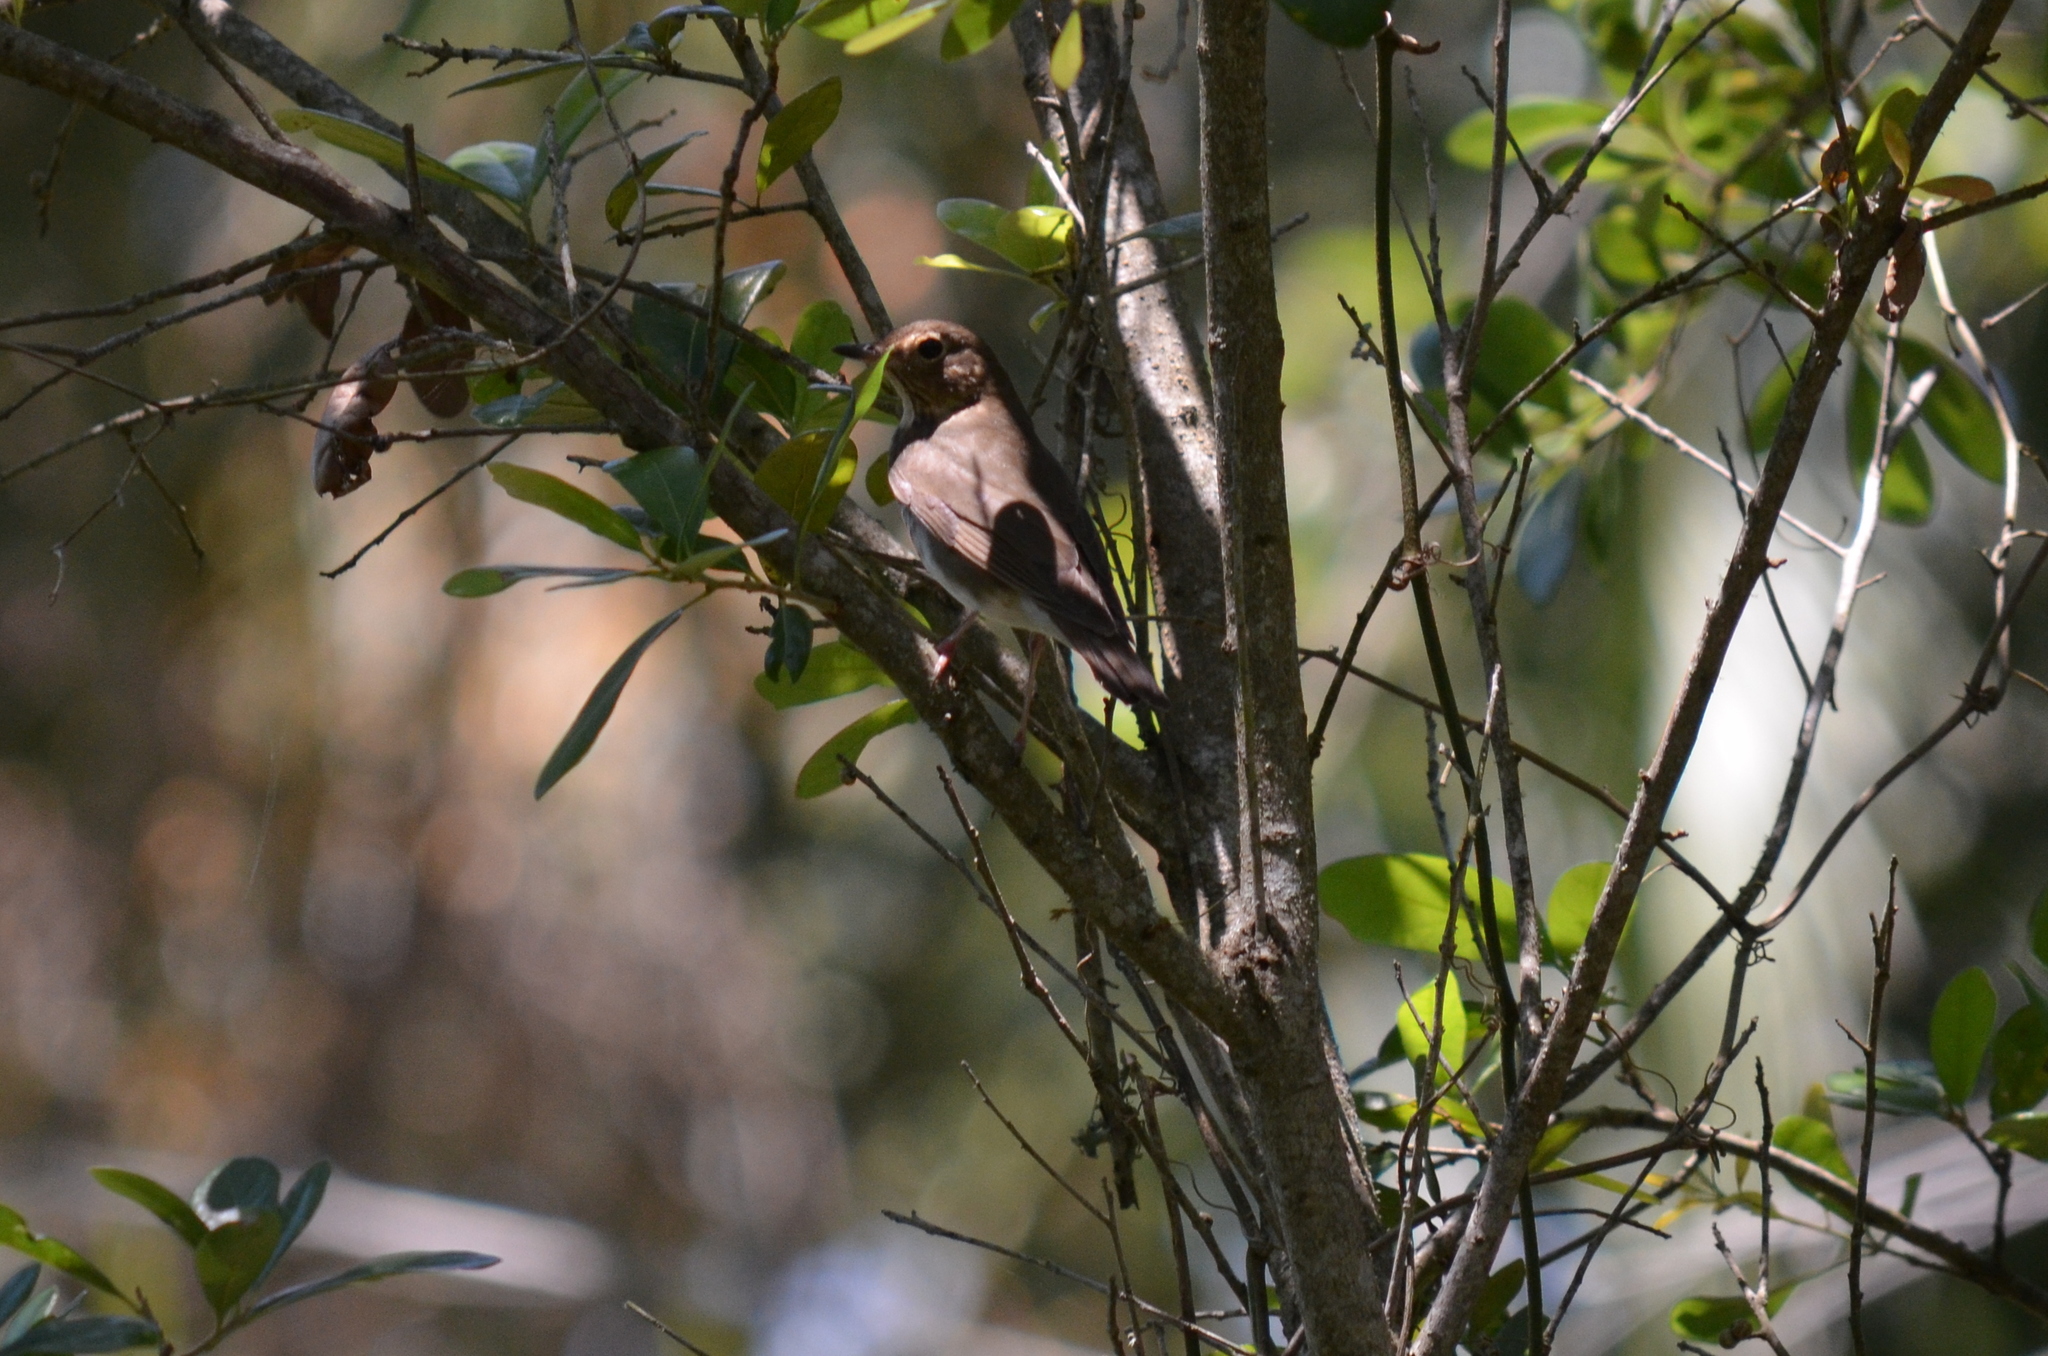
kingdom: Animalia
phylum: Chordata
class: Aves
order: Passeriformes
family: Turdidae
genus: Catharus
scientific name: Catharus ustulatus
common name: Swainson's thrush
